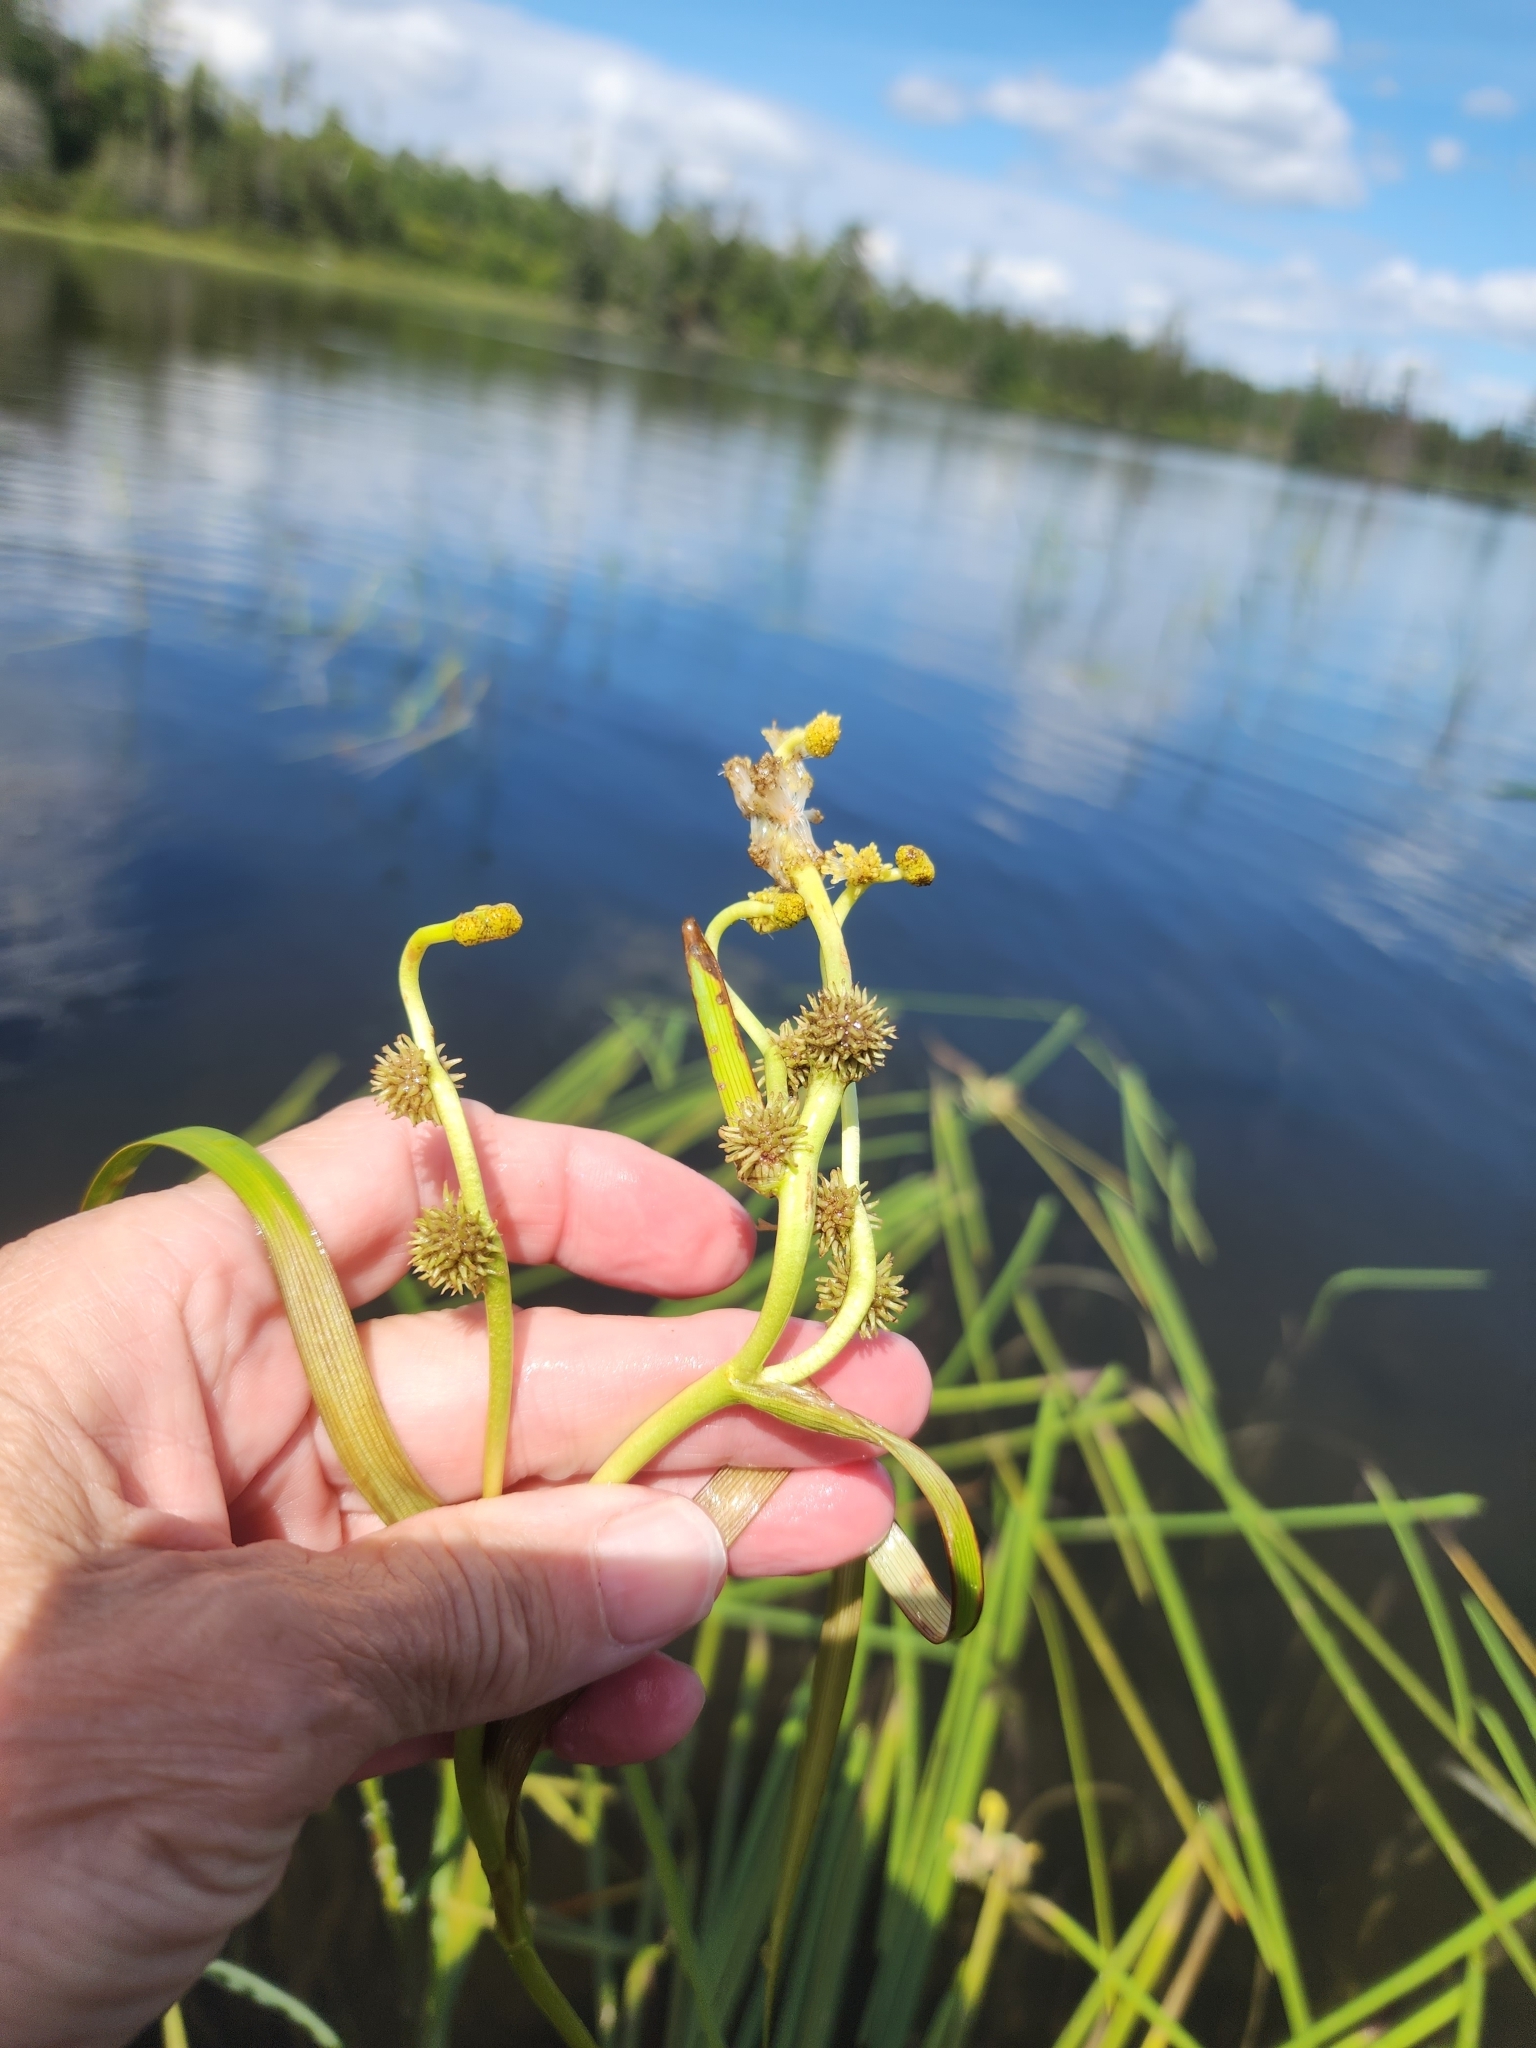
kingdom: Plantae
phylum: Tracheophyta
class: Liliopsida
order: Poales
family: Typhaceae
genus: Sparganium
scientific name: Sparganium fluctuans
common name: Floating burreed
